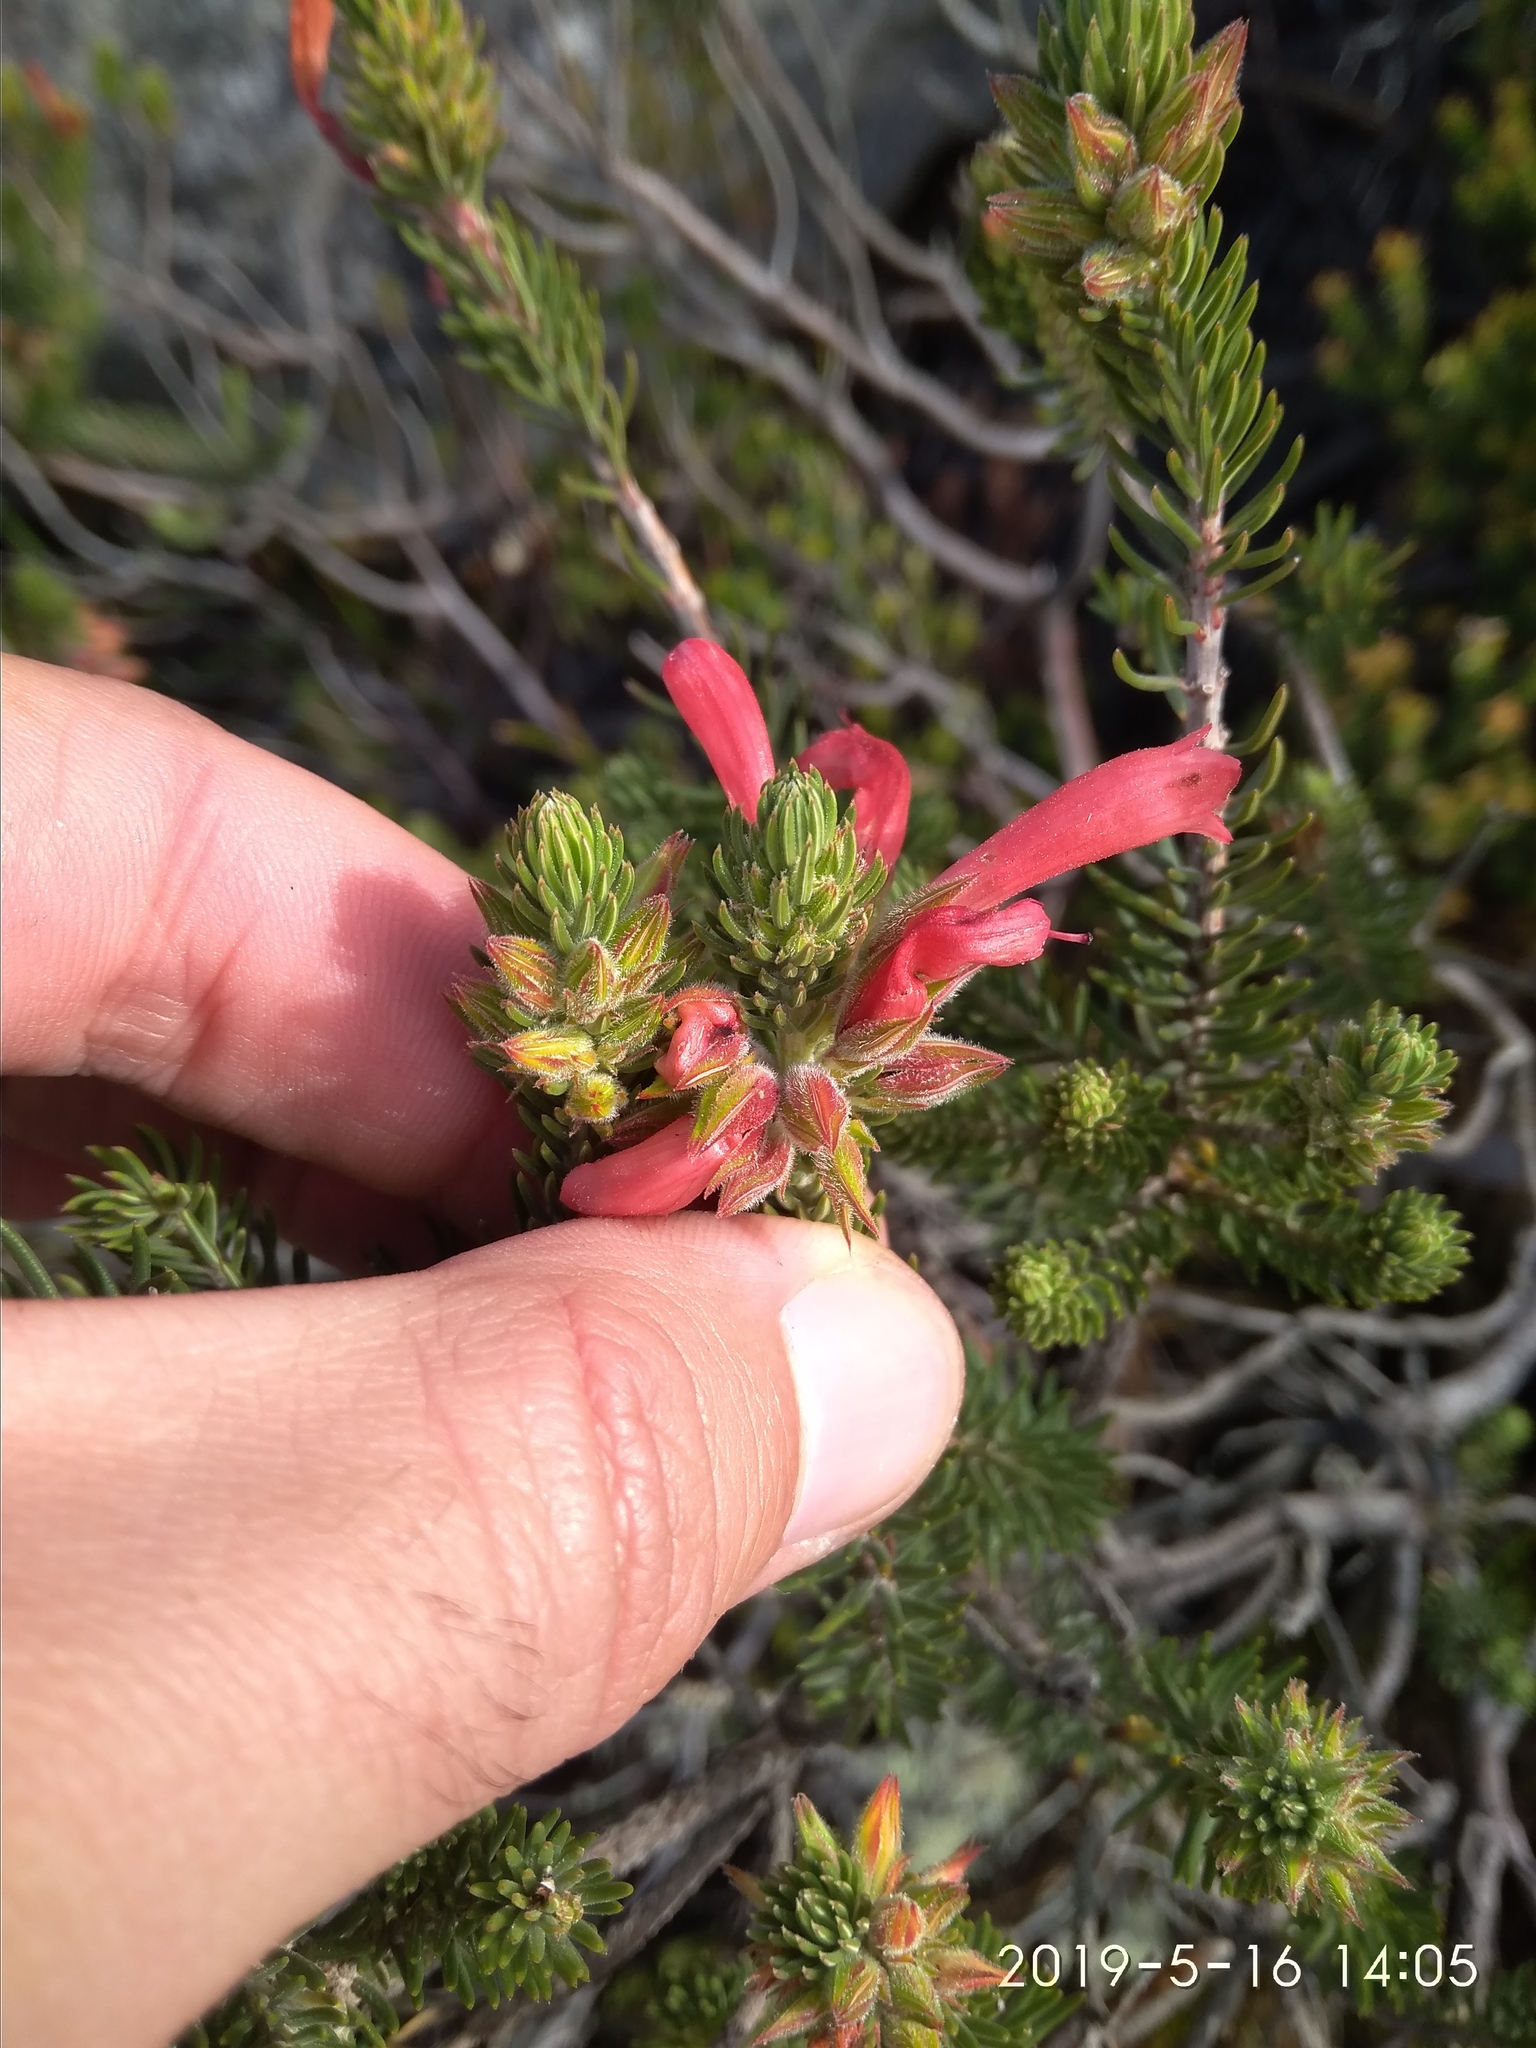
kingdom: Plantae
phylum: Tracheophyta
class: Magnoliopsida
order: Ericales
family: Ericaceae
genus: Erica
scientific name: Erica abietina
